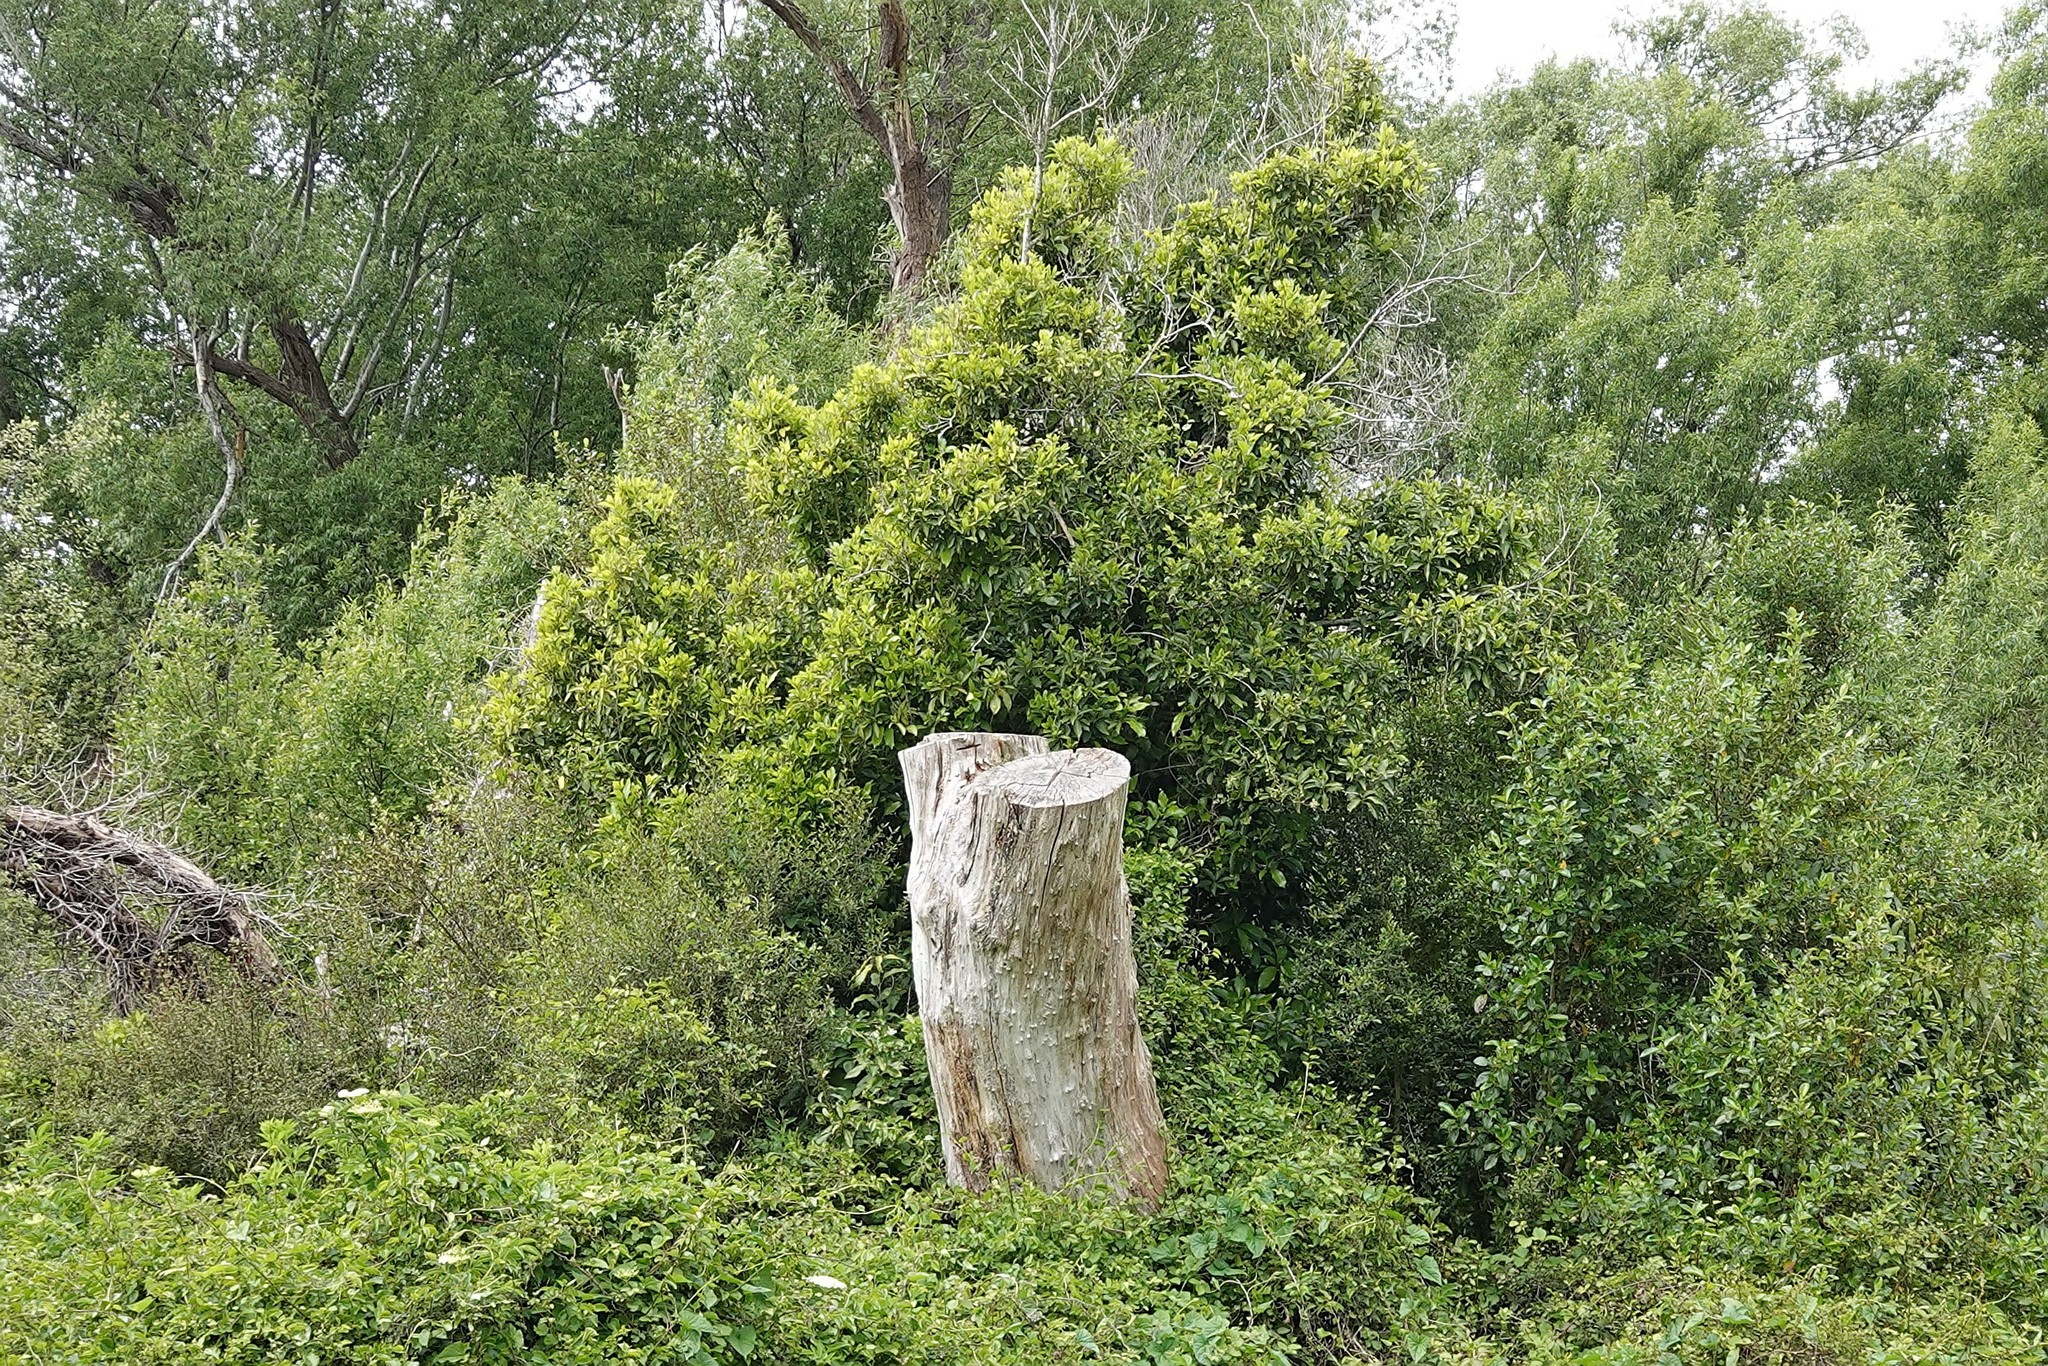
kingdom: Plantae
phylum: Tracheophyta
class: Magnoliopsida
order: Malpighiales
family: Violaceae
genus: Melicytus
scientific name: Melicytus ramiflorus
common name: Mahoe
